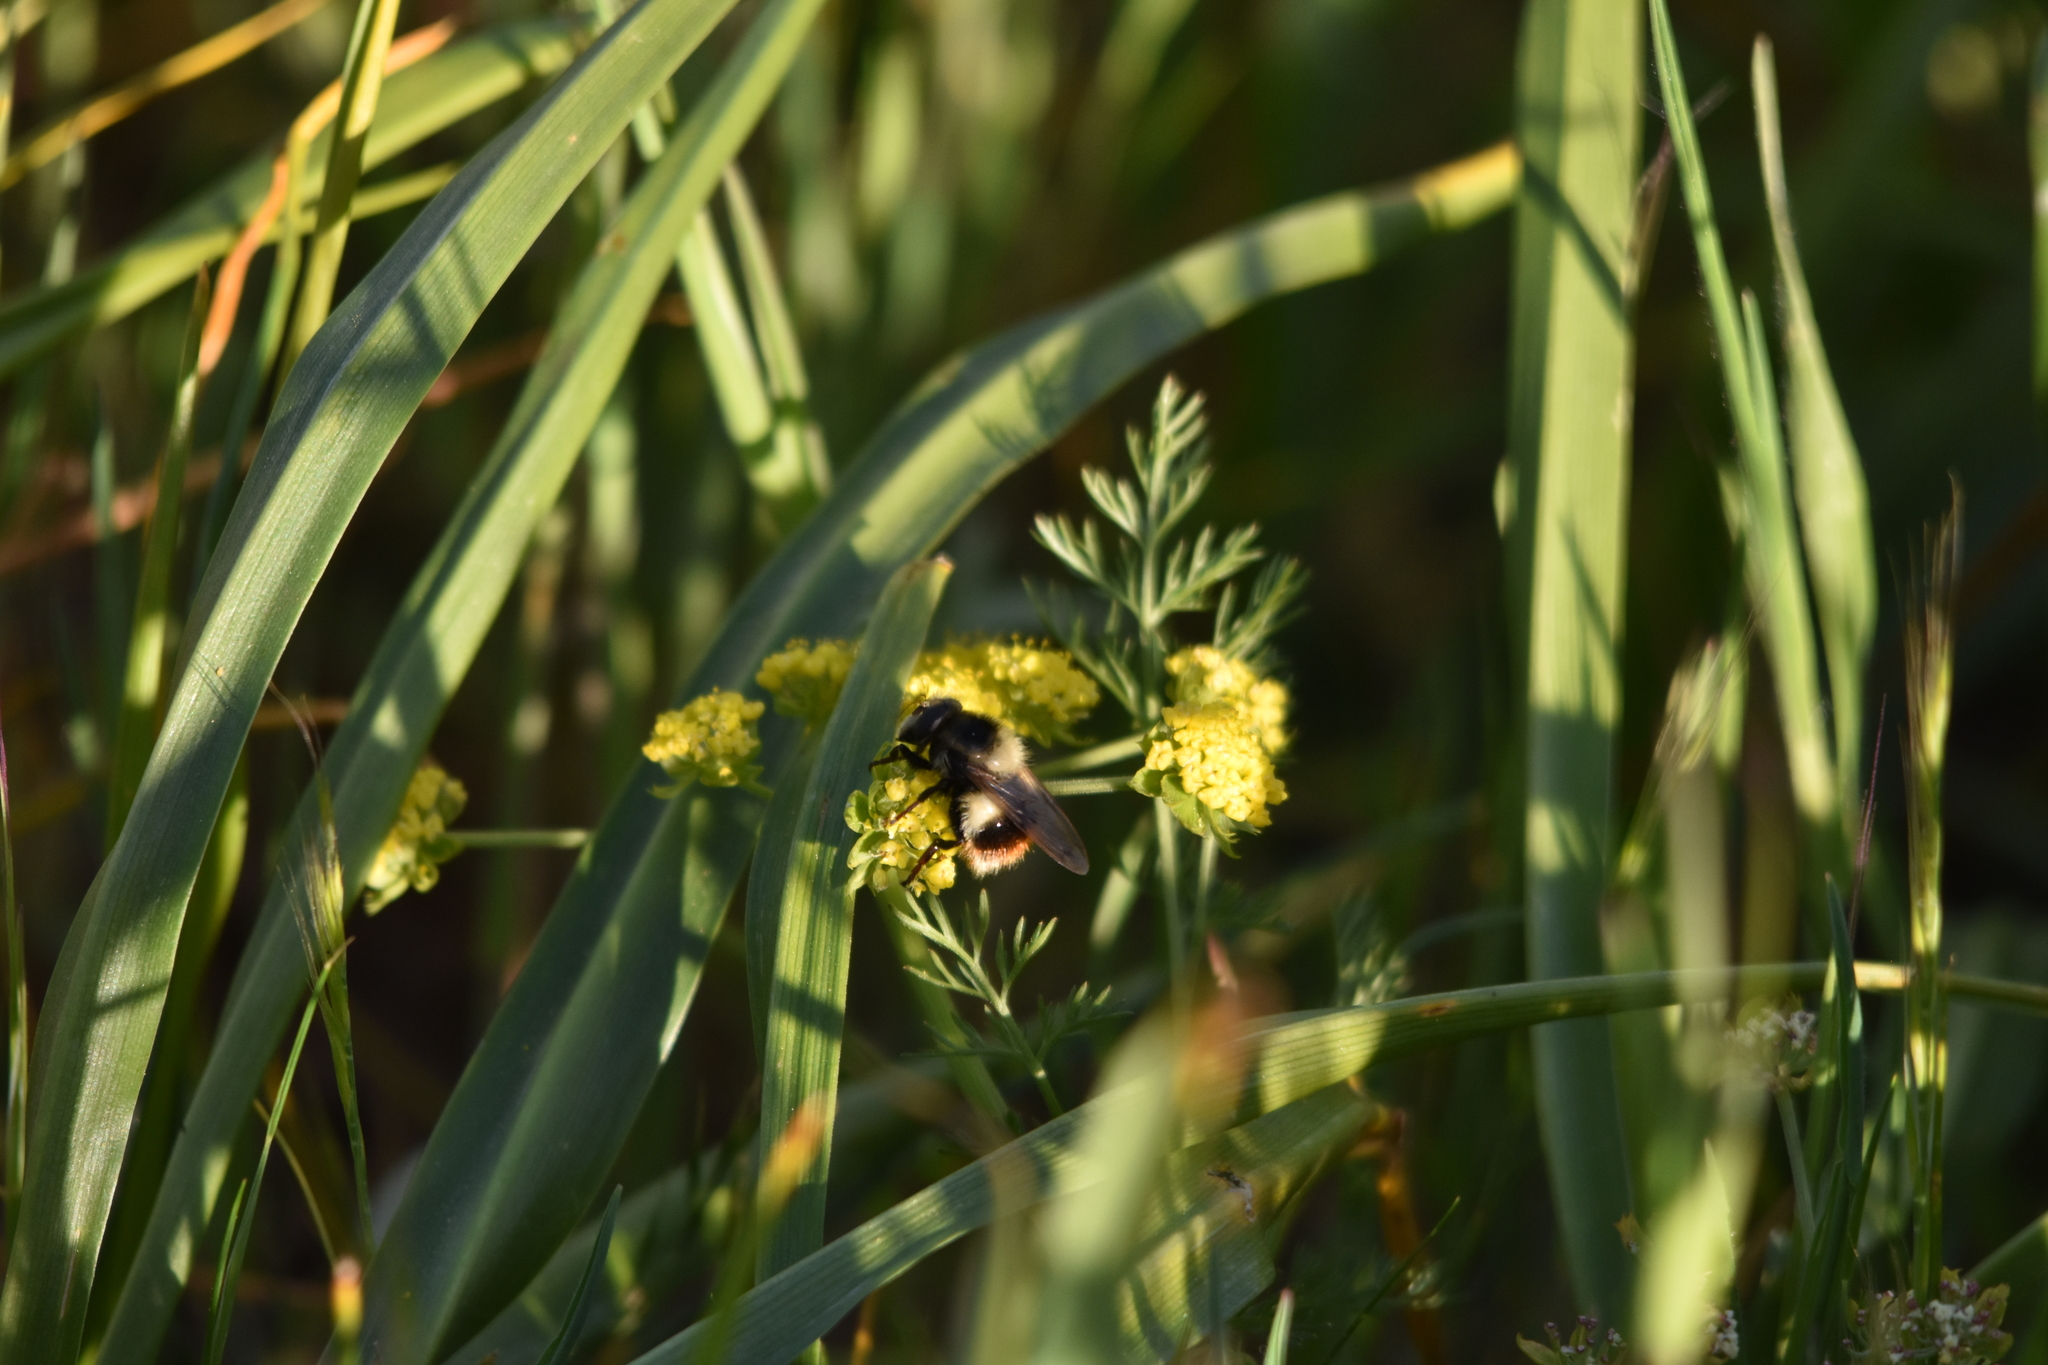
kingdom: Animalia
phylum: Arthropoda
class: Insecta
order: Diptera
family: Syrphidae
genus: Volucella
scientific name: Volucella facialis
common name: Yellow-faced swiftwing
